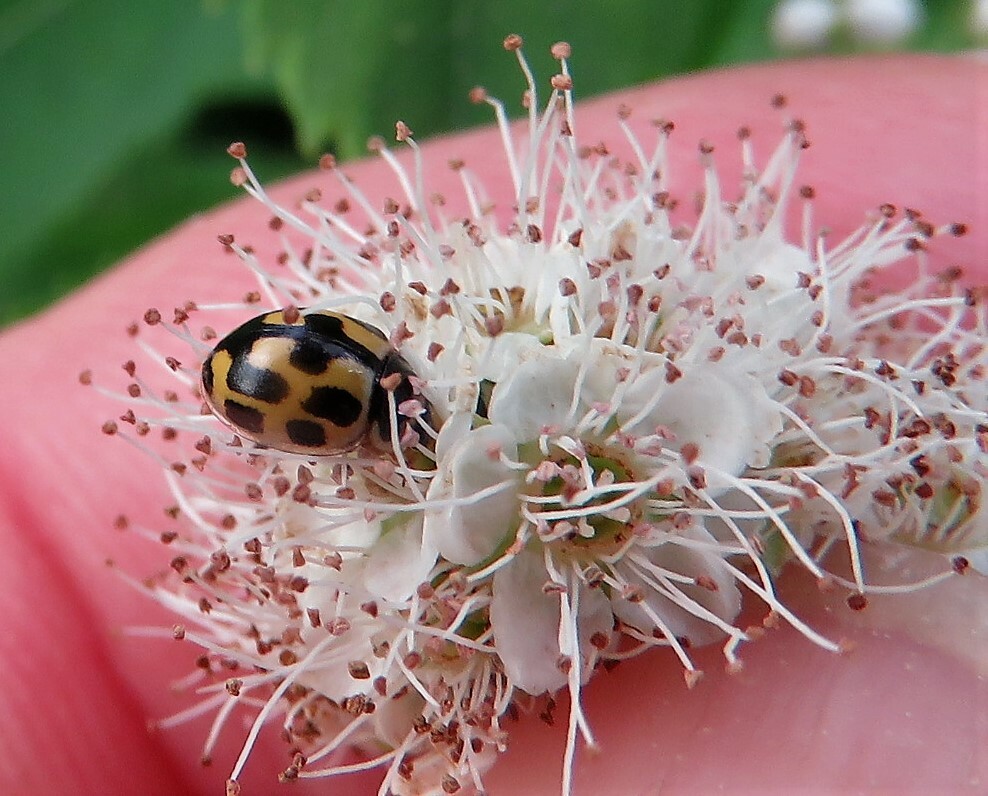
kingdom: Animalia
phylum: Arthropoda
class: Insecta
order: Coleoptera
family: Coccinellidae
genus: Propylaea
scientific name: Propylaea quatuordecimpunctata
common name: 14-spotted ladybird beetle
